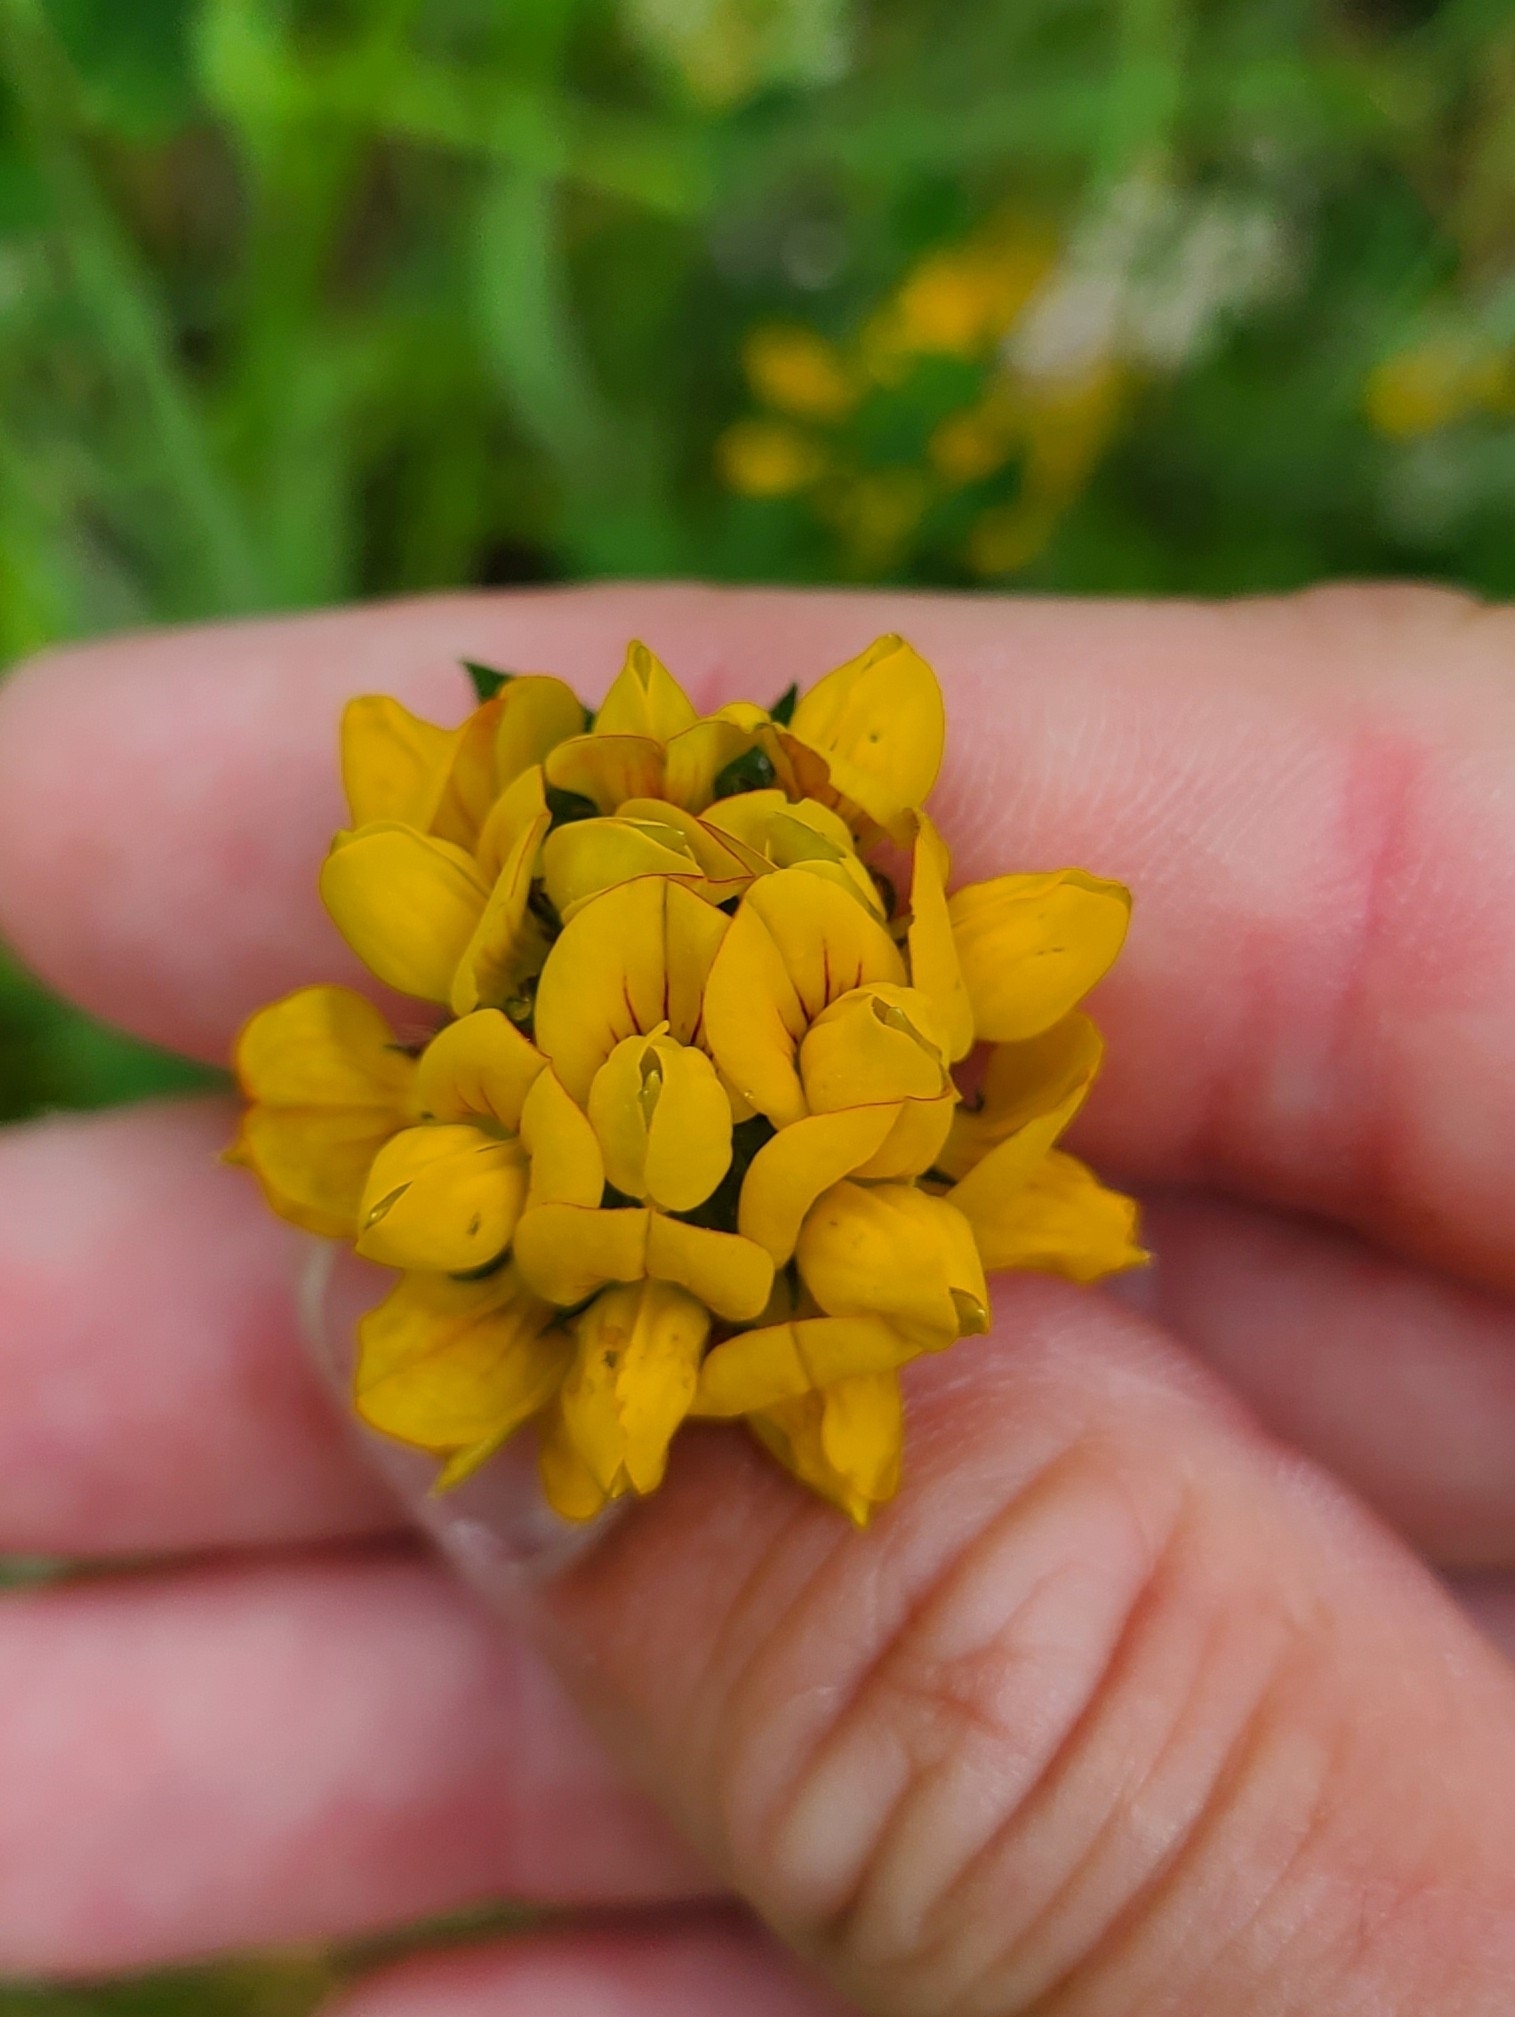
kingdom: Plantae
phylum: Tracheophyta
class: Magnoliopsida
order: Fabales
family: Fabaceae
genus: Lotus
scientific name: Lotus pedunculatus
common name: Greater birdsfoot-trefoil
